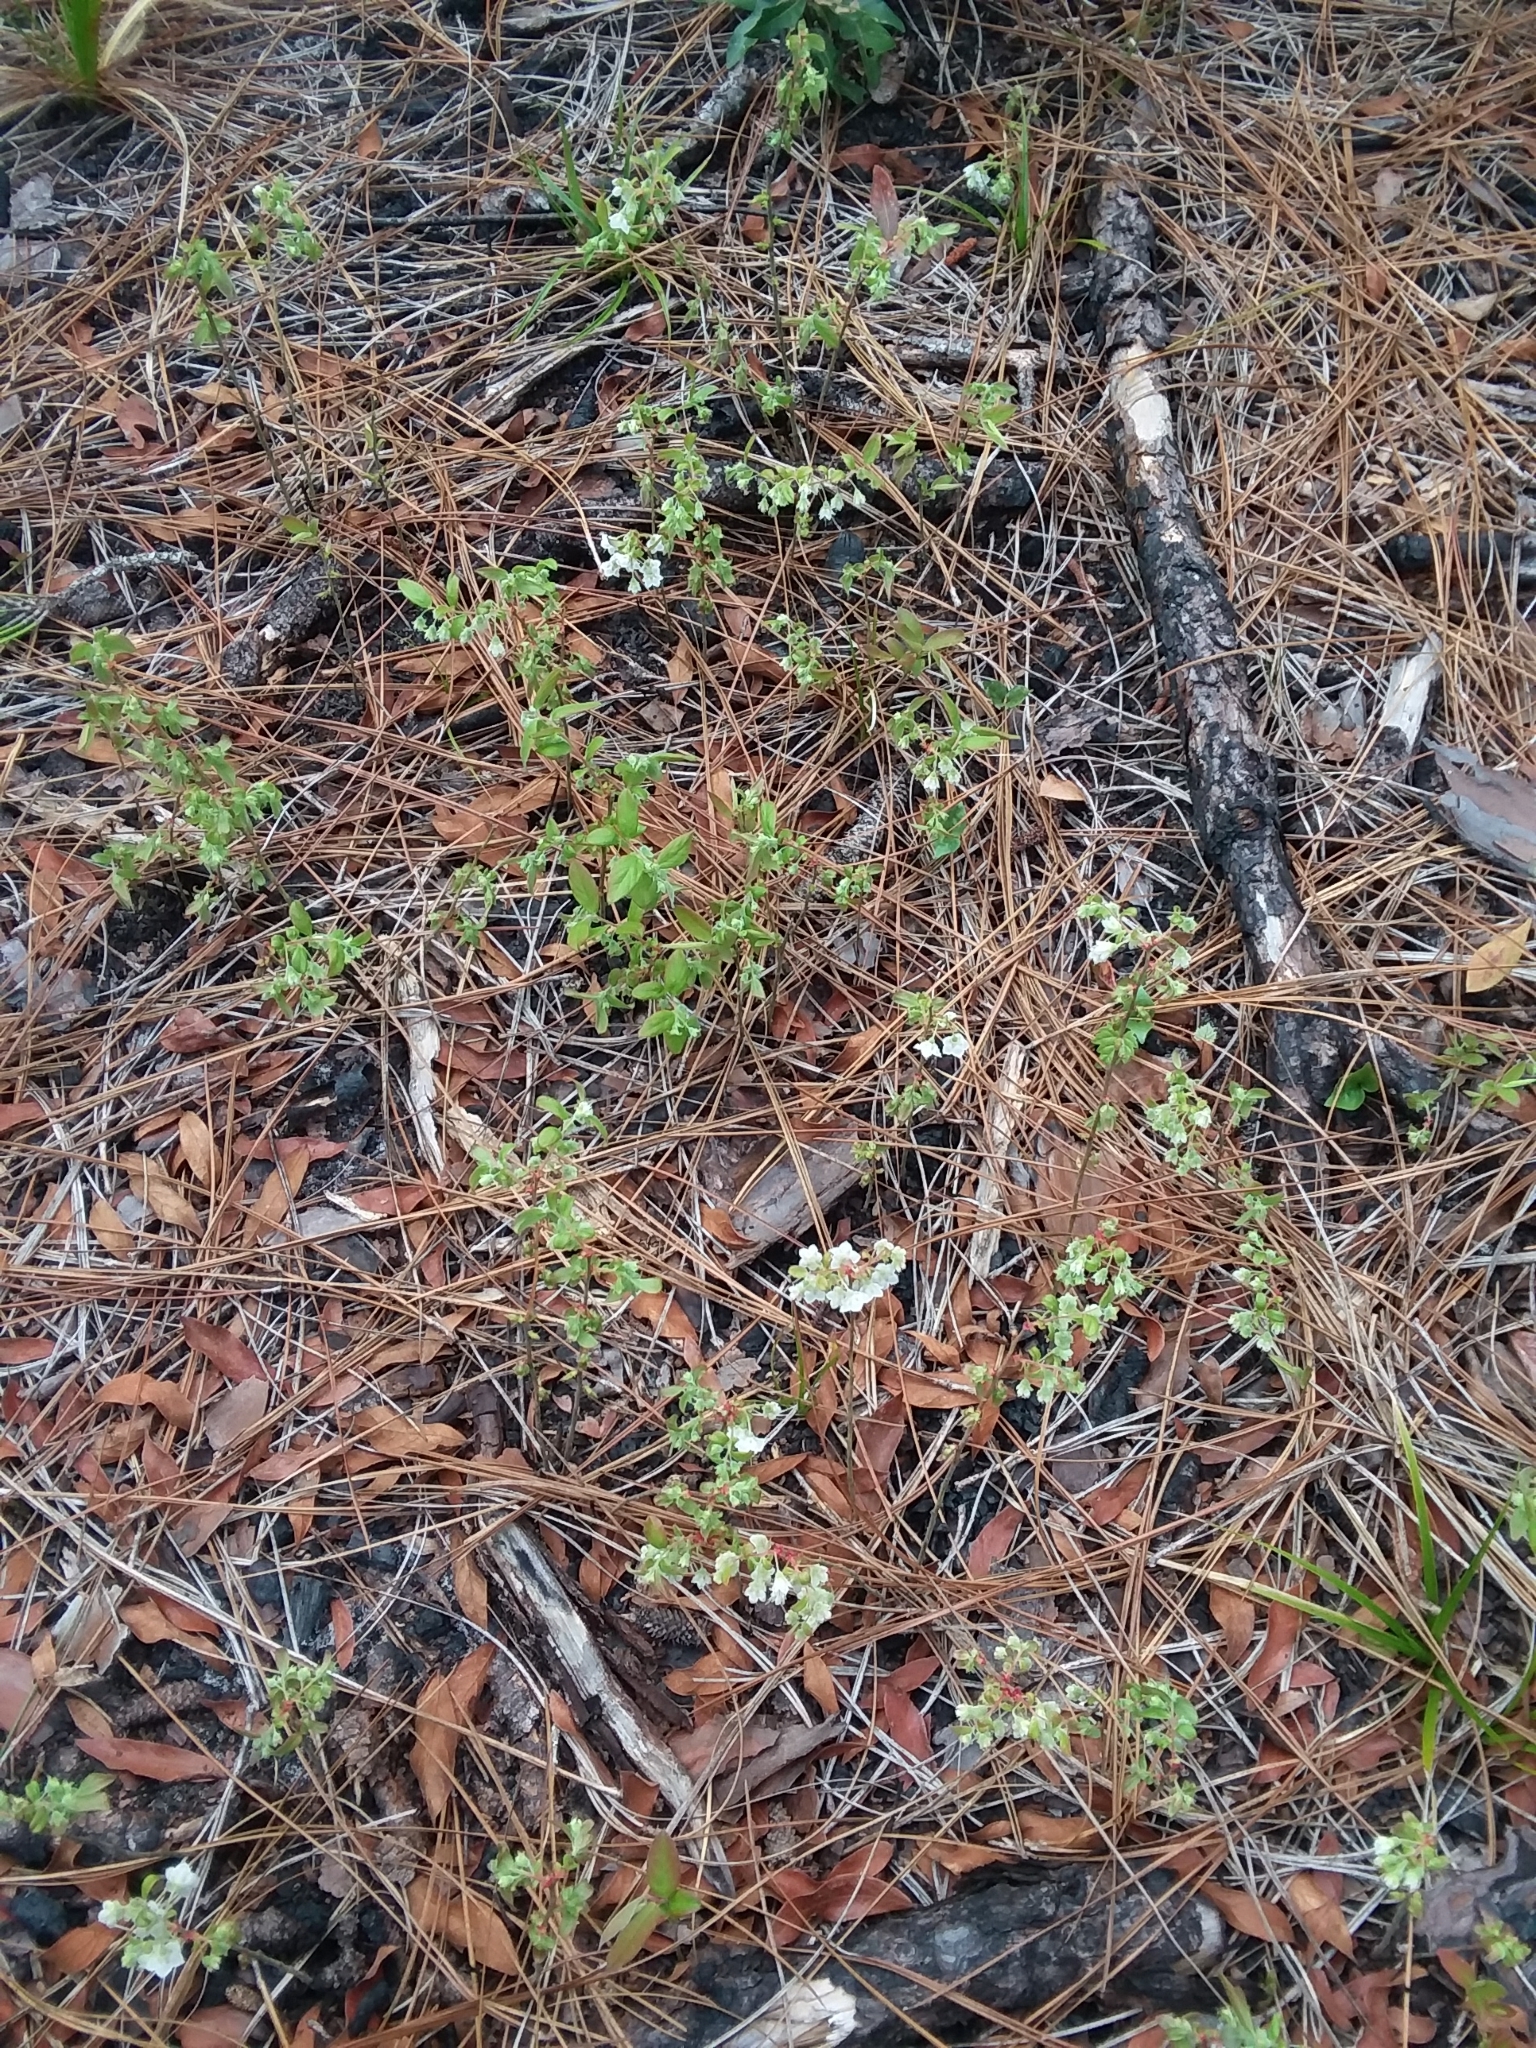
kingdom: Plantae
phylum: Tracheophyta
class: Magnoliopsida
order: Ericales
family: Ericaceae
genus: Vaccinium
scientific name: Vaccinium stamineum
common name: Deerberry
